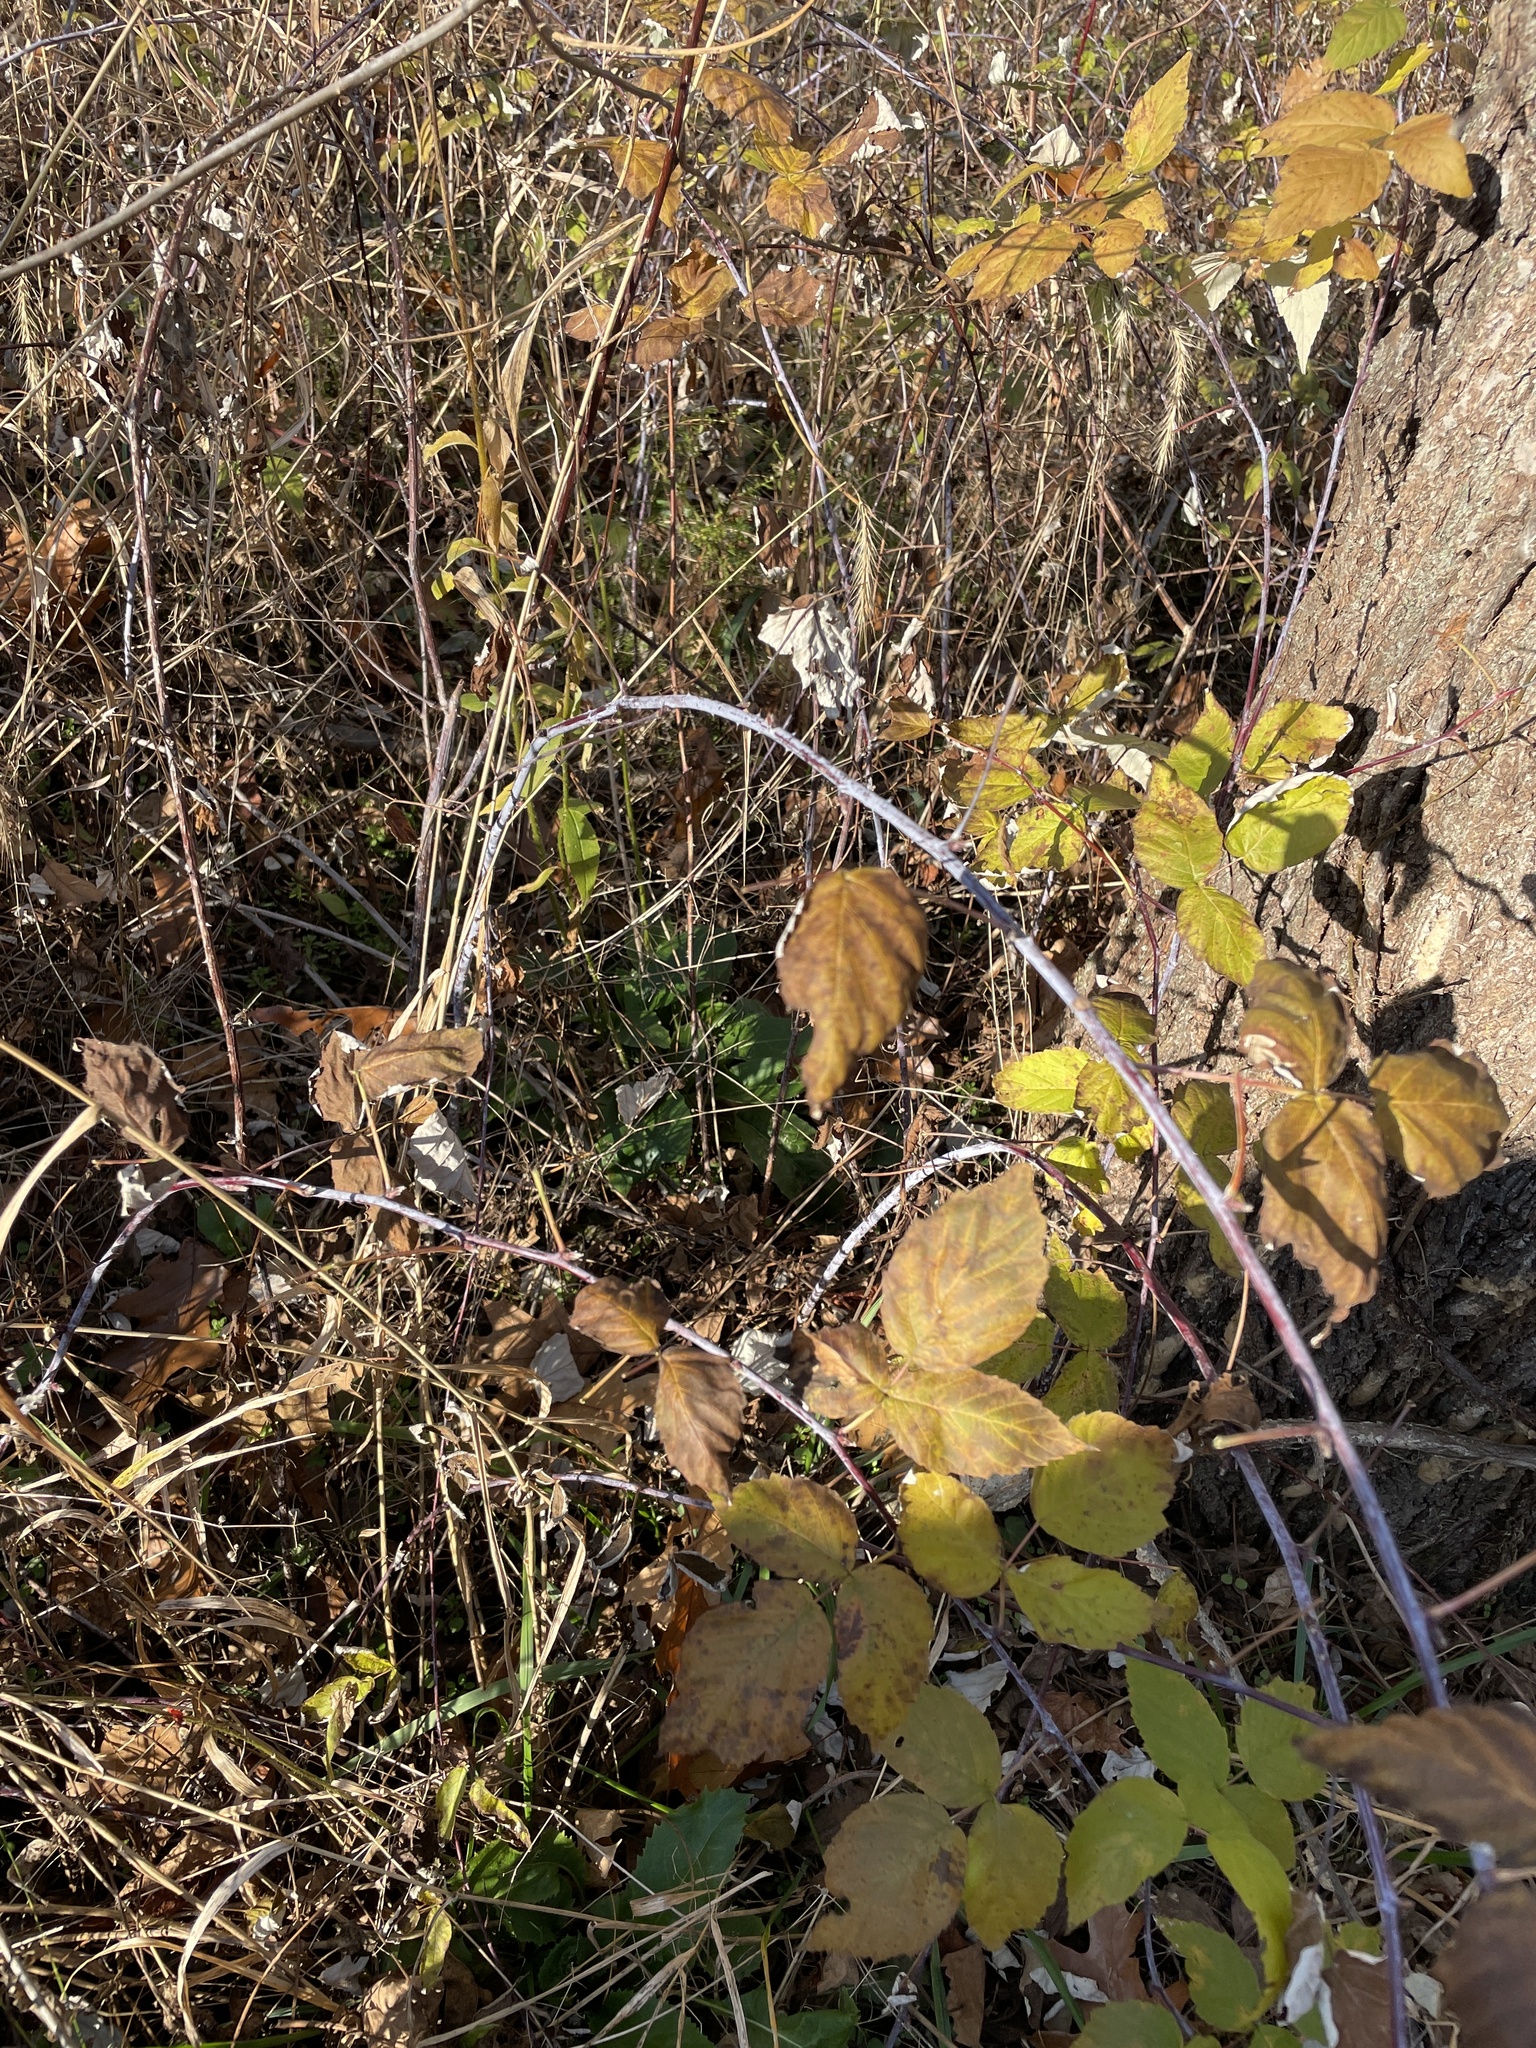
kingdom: Plantae
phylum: Tracheophyta
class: Magnoliopsida
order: Rosales
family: Rosaceae
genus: Rubus
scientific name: Rubus occidentalis
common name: Black raspberry
